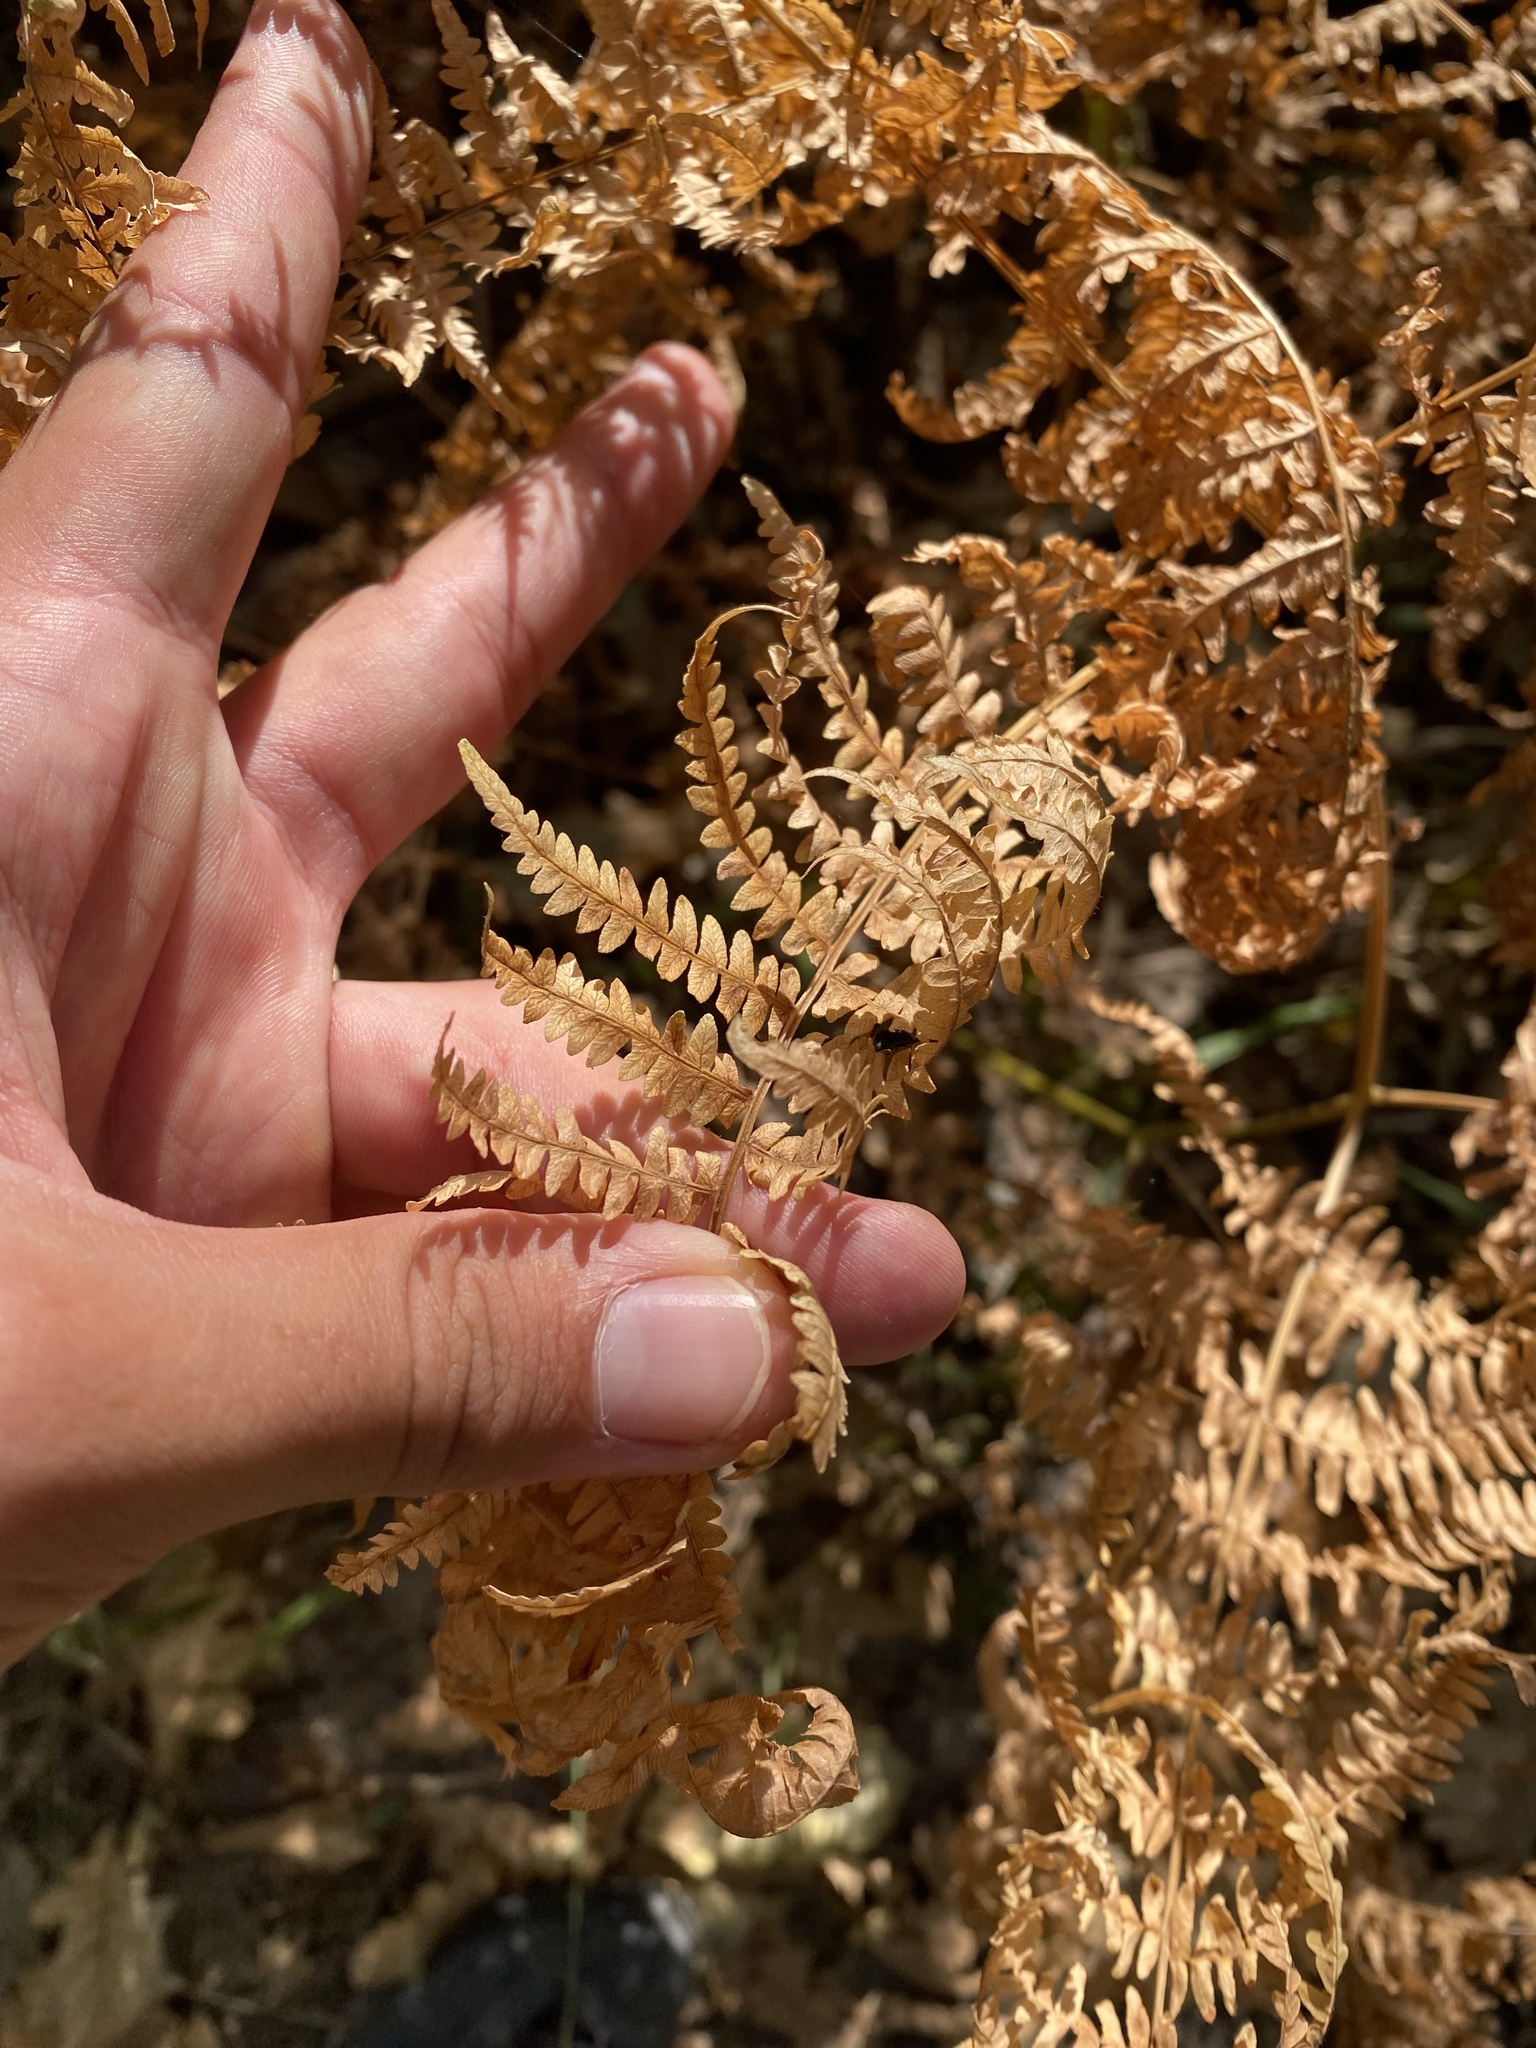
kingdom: Plantae
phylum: Tracheophyta
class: Polypodiopsida
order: Polypodiales
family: Dennstaedtiaceae
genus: Pteridium
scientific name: Pteridium tauricum
